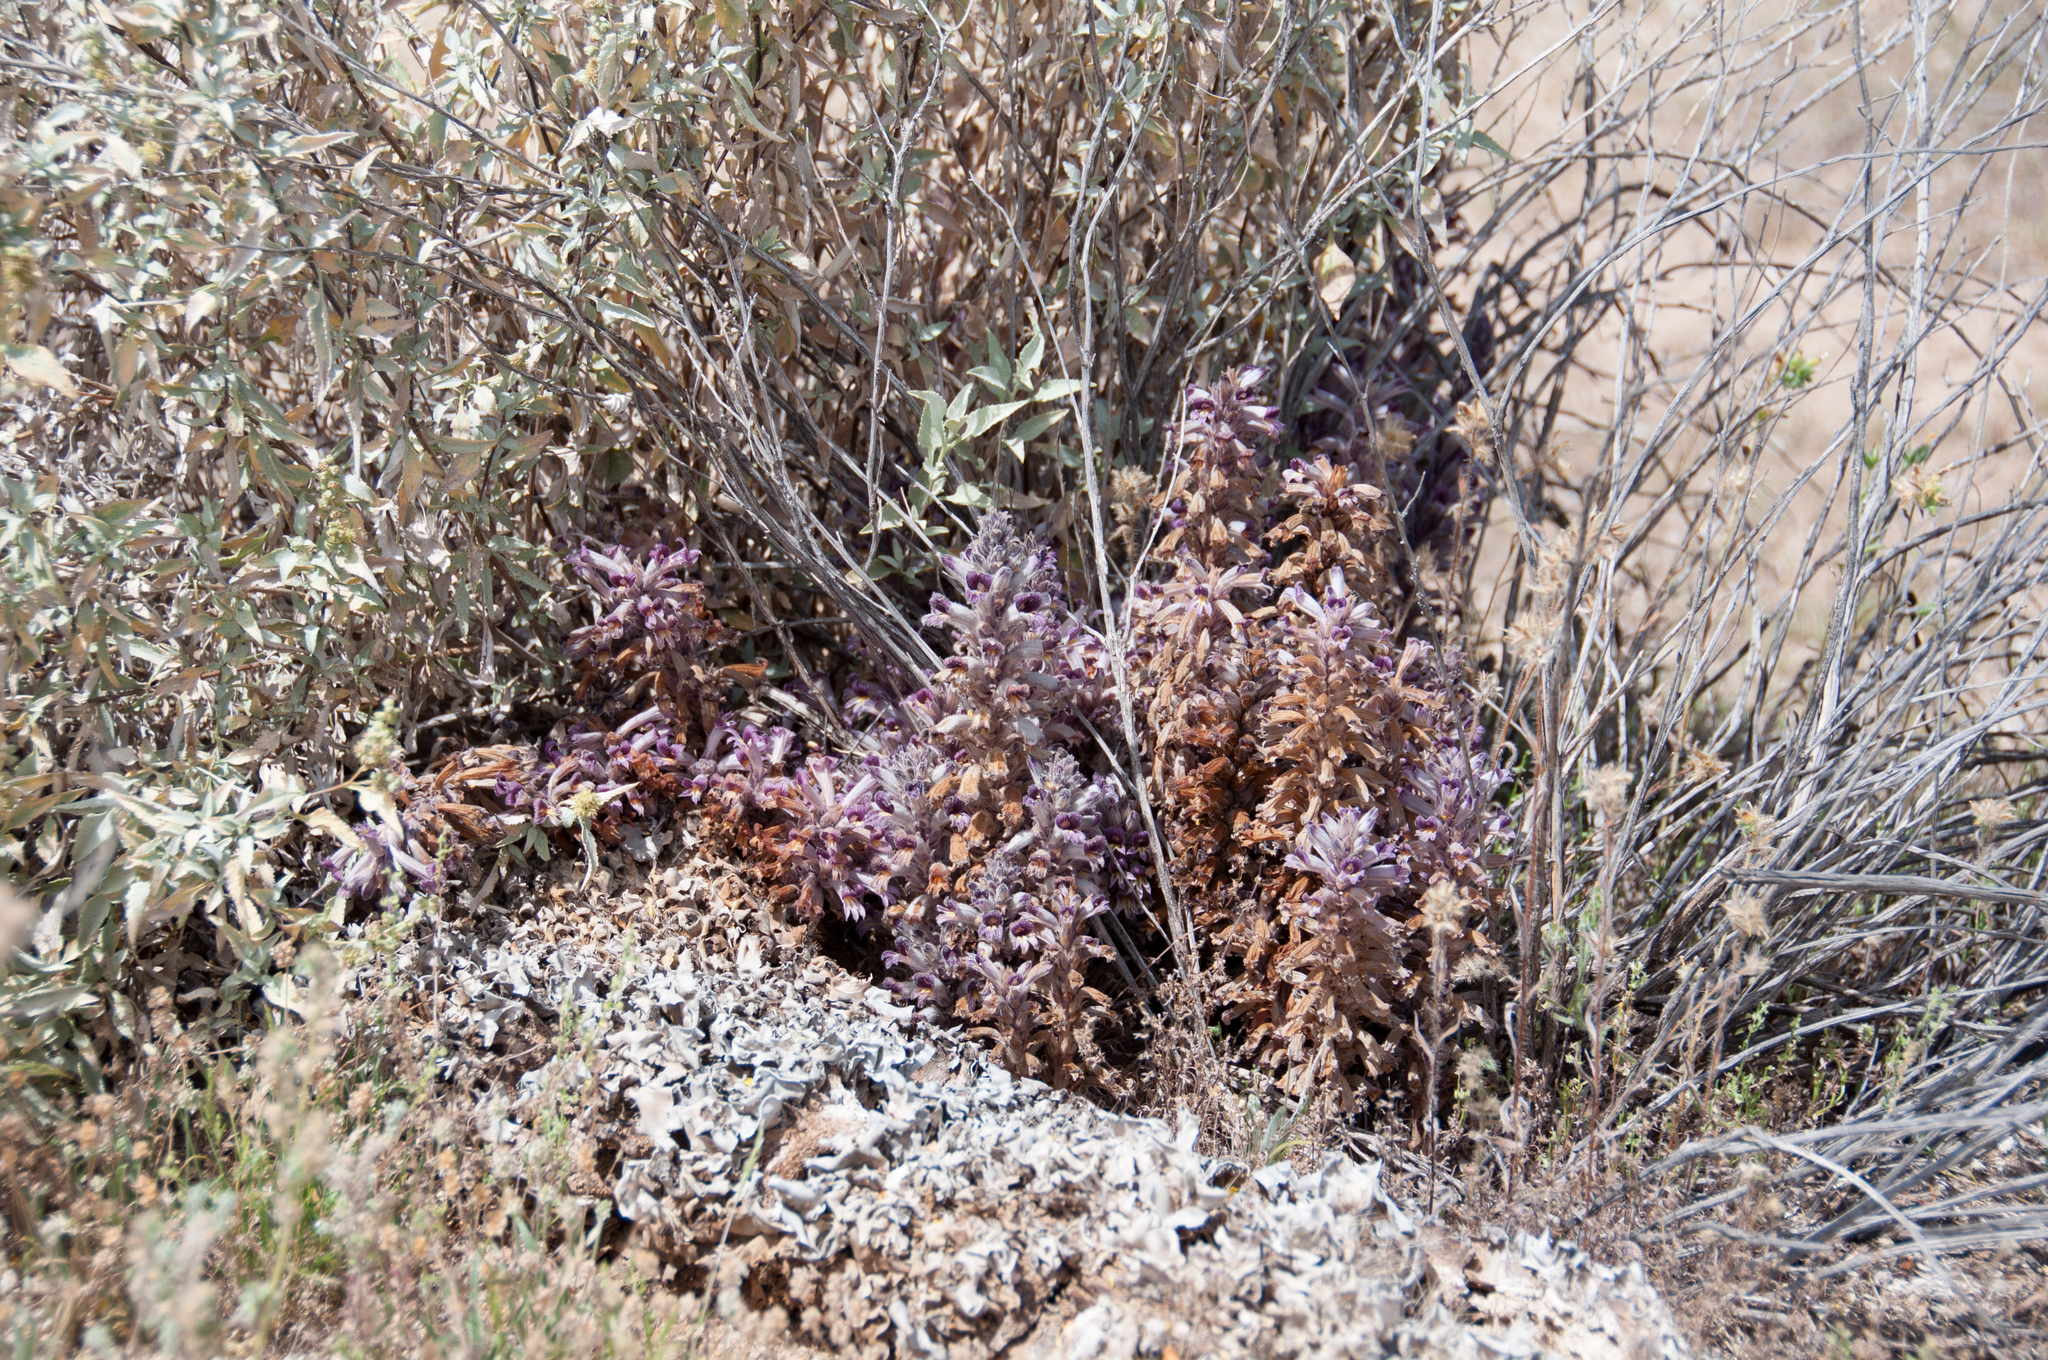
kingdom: Plantae
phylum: Tracheophyta
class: Magnoliopsida
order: Lamiales
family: Orobanchaceae
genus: Aphyllon
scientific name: Aphyllon cooperi
